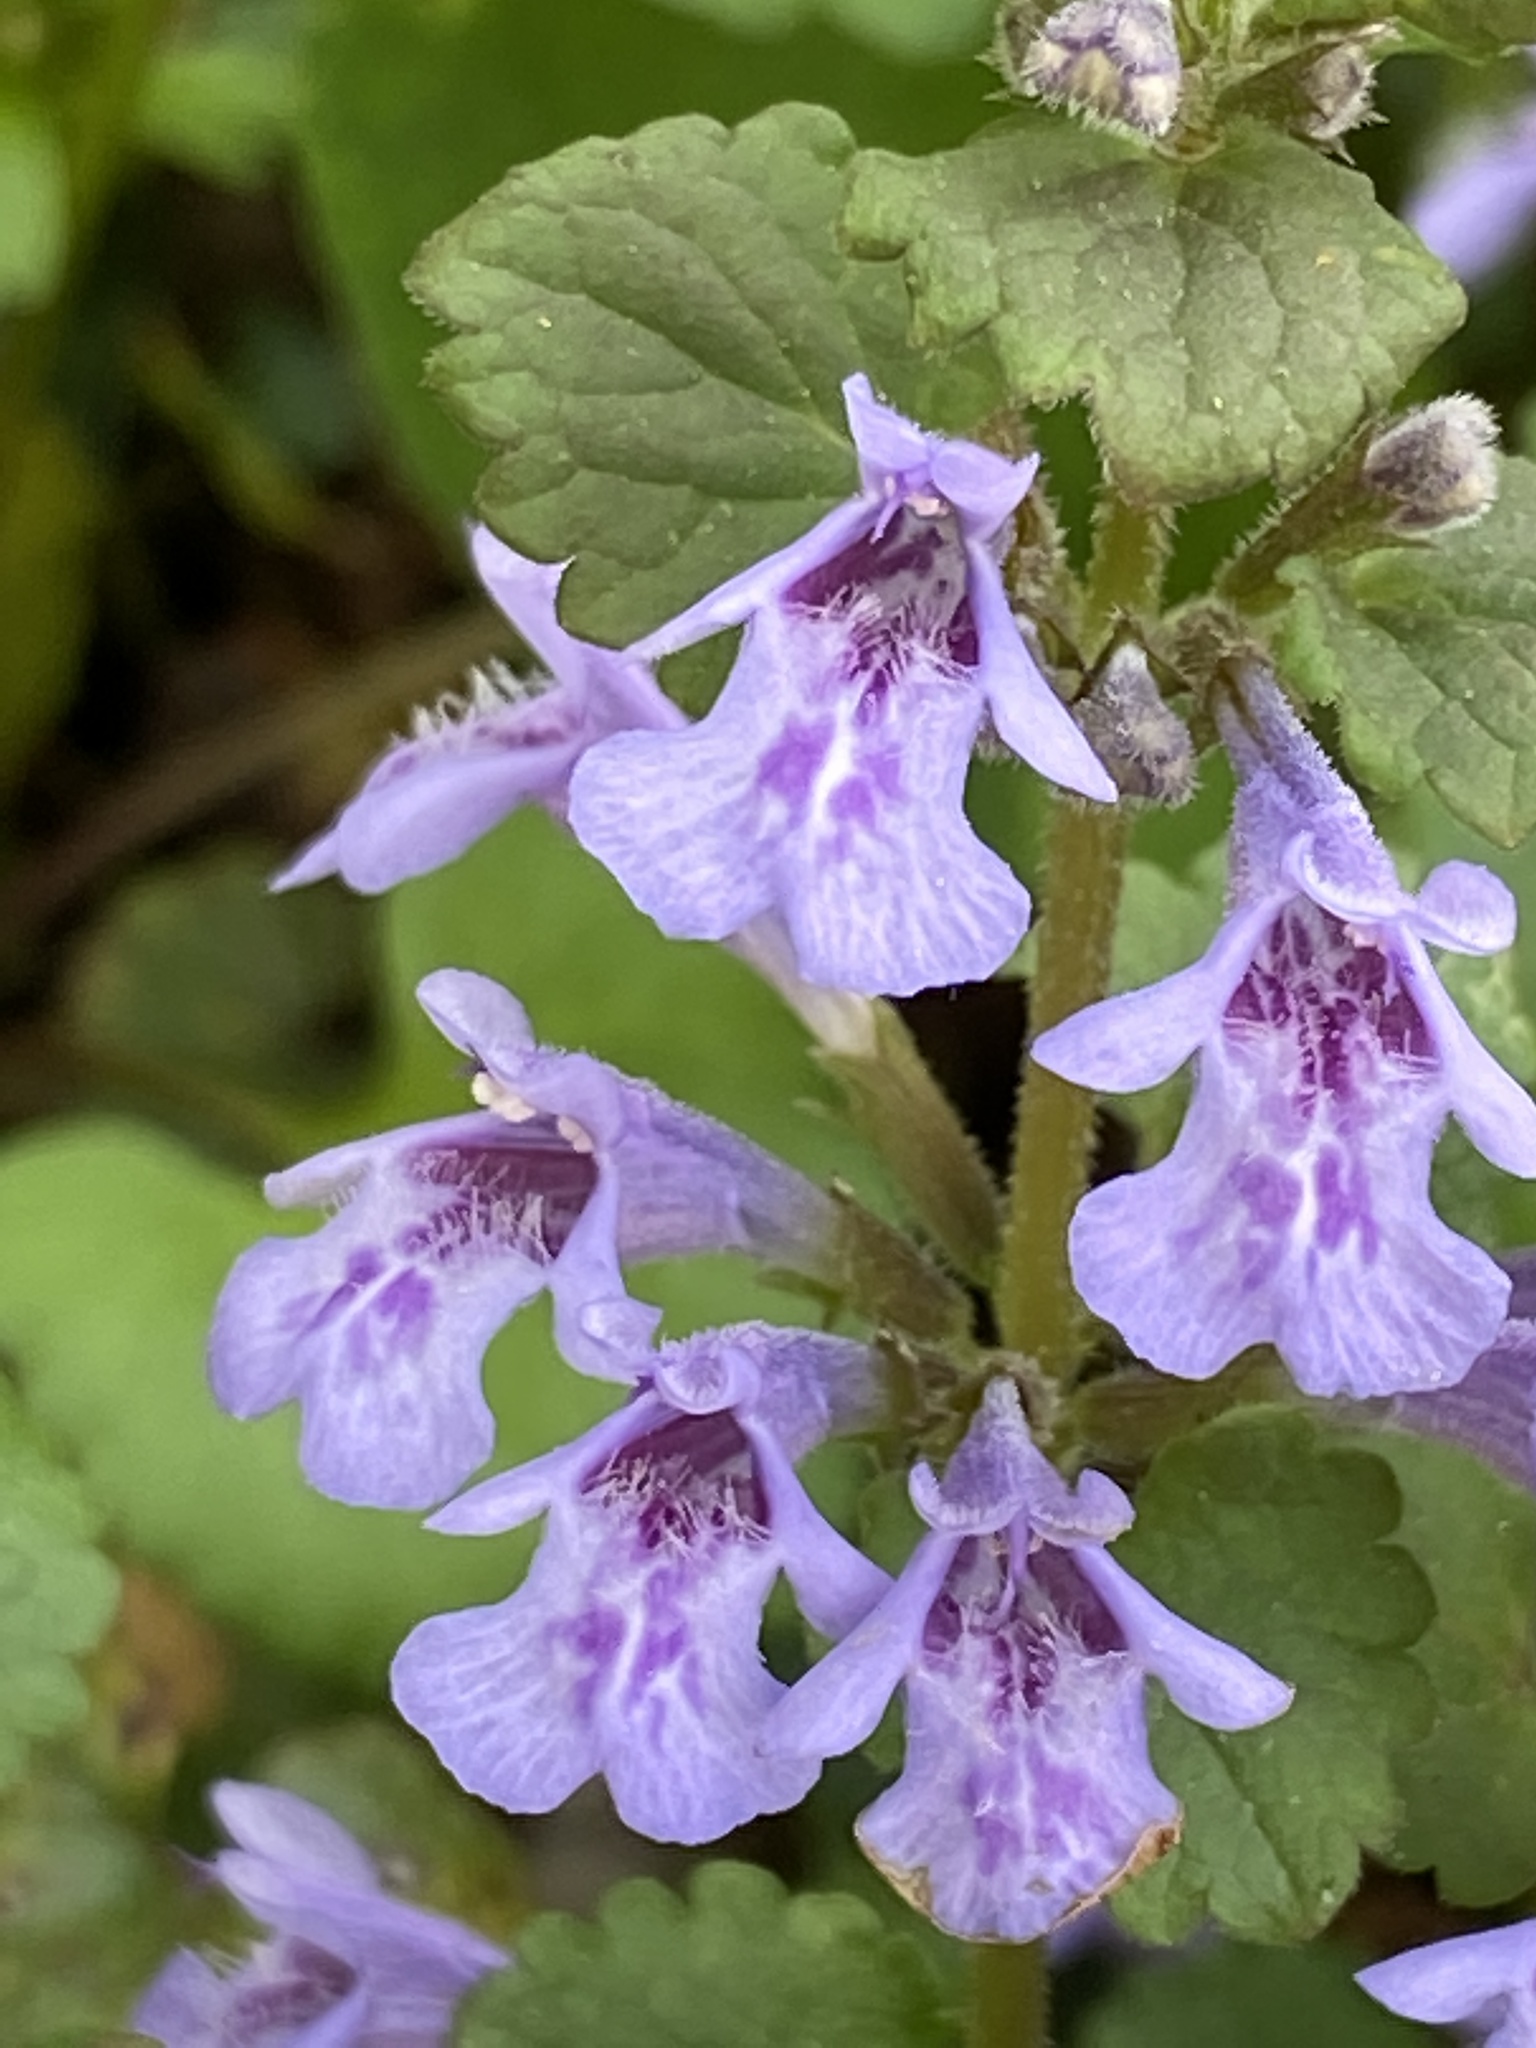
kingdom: Plantae
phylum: Tracheophyta
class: Magnoliopsida
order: Lamiales
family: Lamiaceae
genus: Glechoma
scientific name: Glechoma hederacea
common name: Ground ivy
